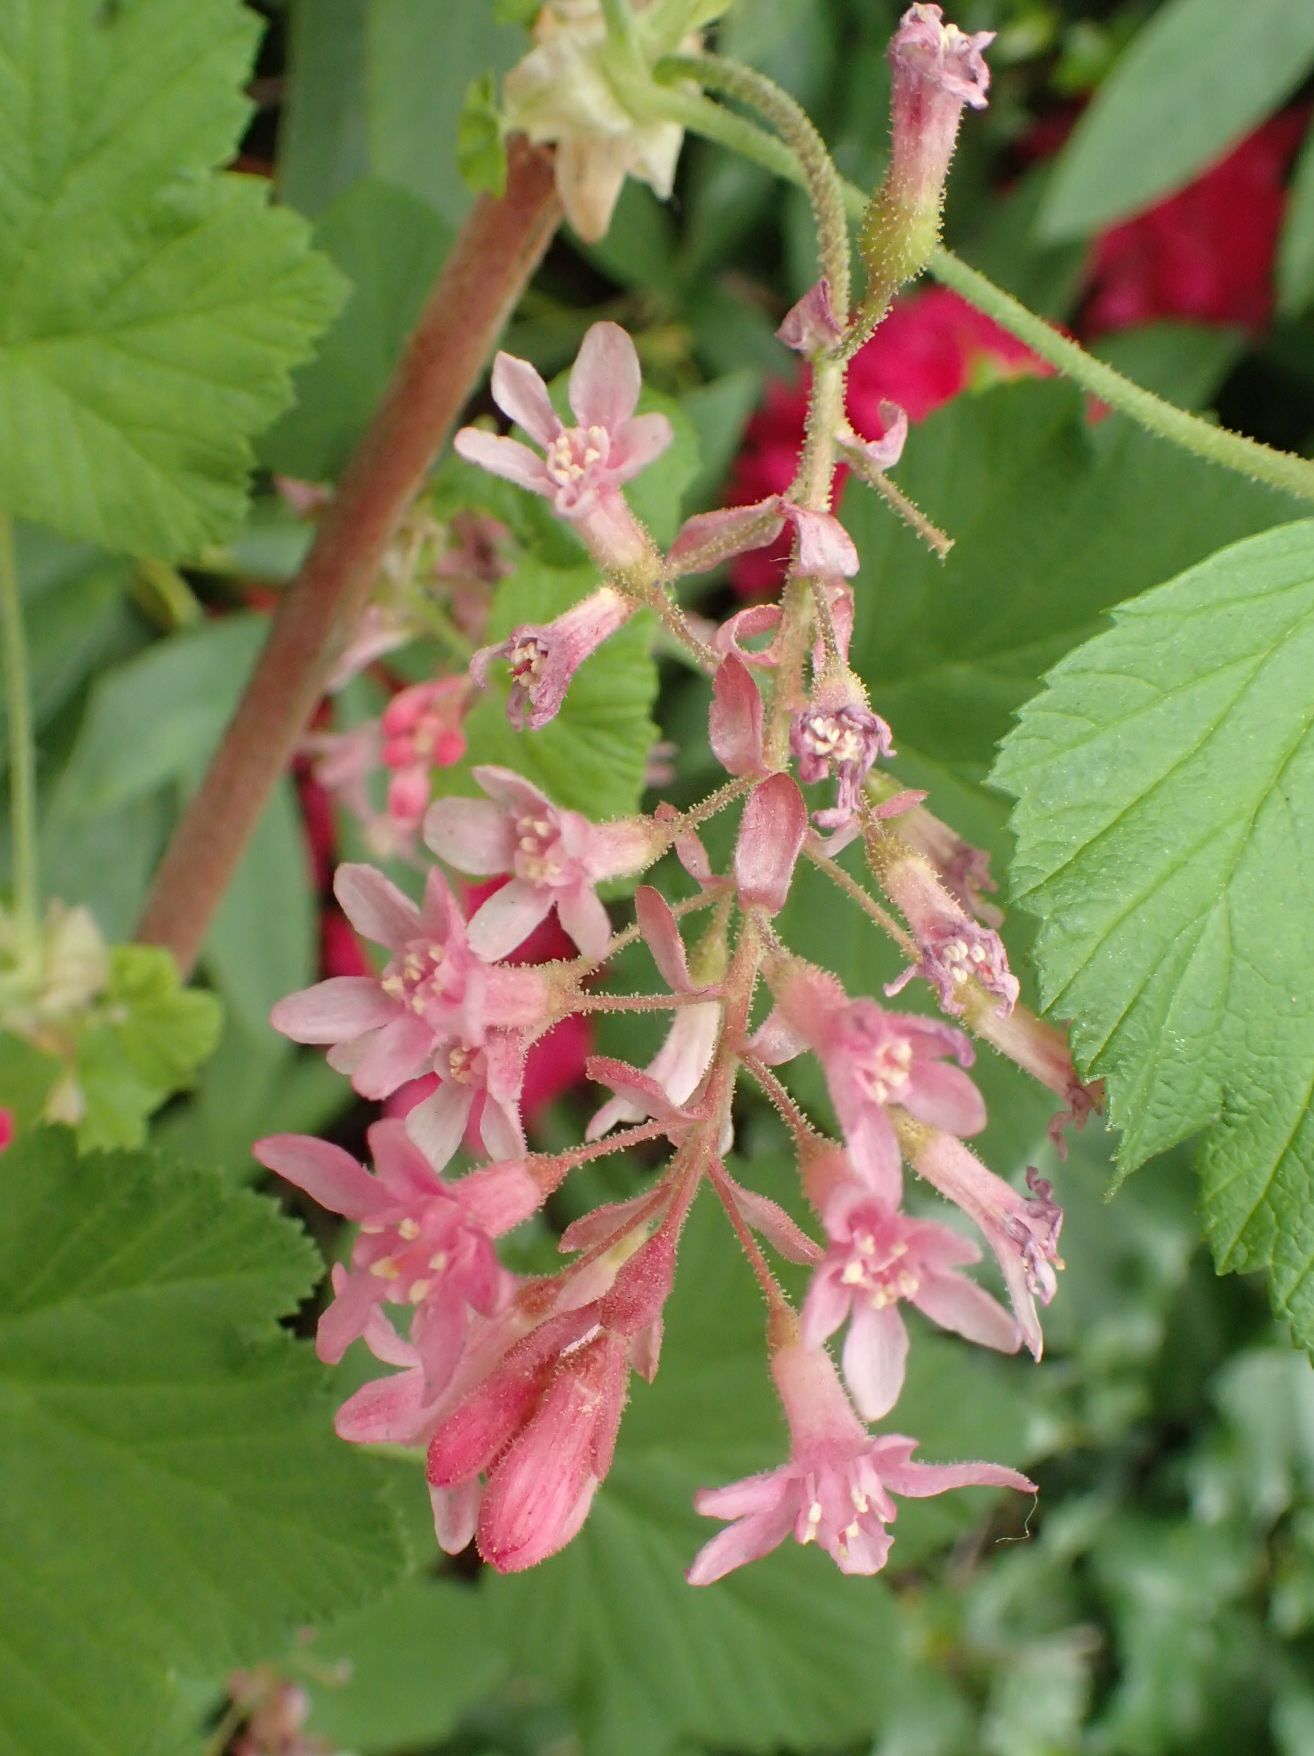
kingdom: Plantae
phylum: Tracheophyta
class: Magnoliopsida
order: Saxifragales
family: Grossulariaceae
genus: Ribes
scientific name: Ribes sanguineum
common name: Flowering currant
